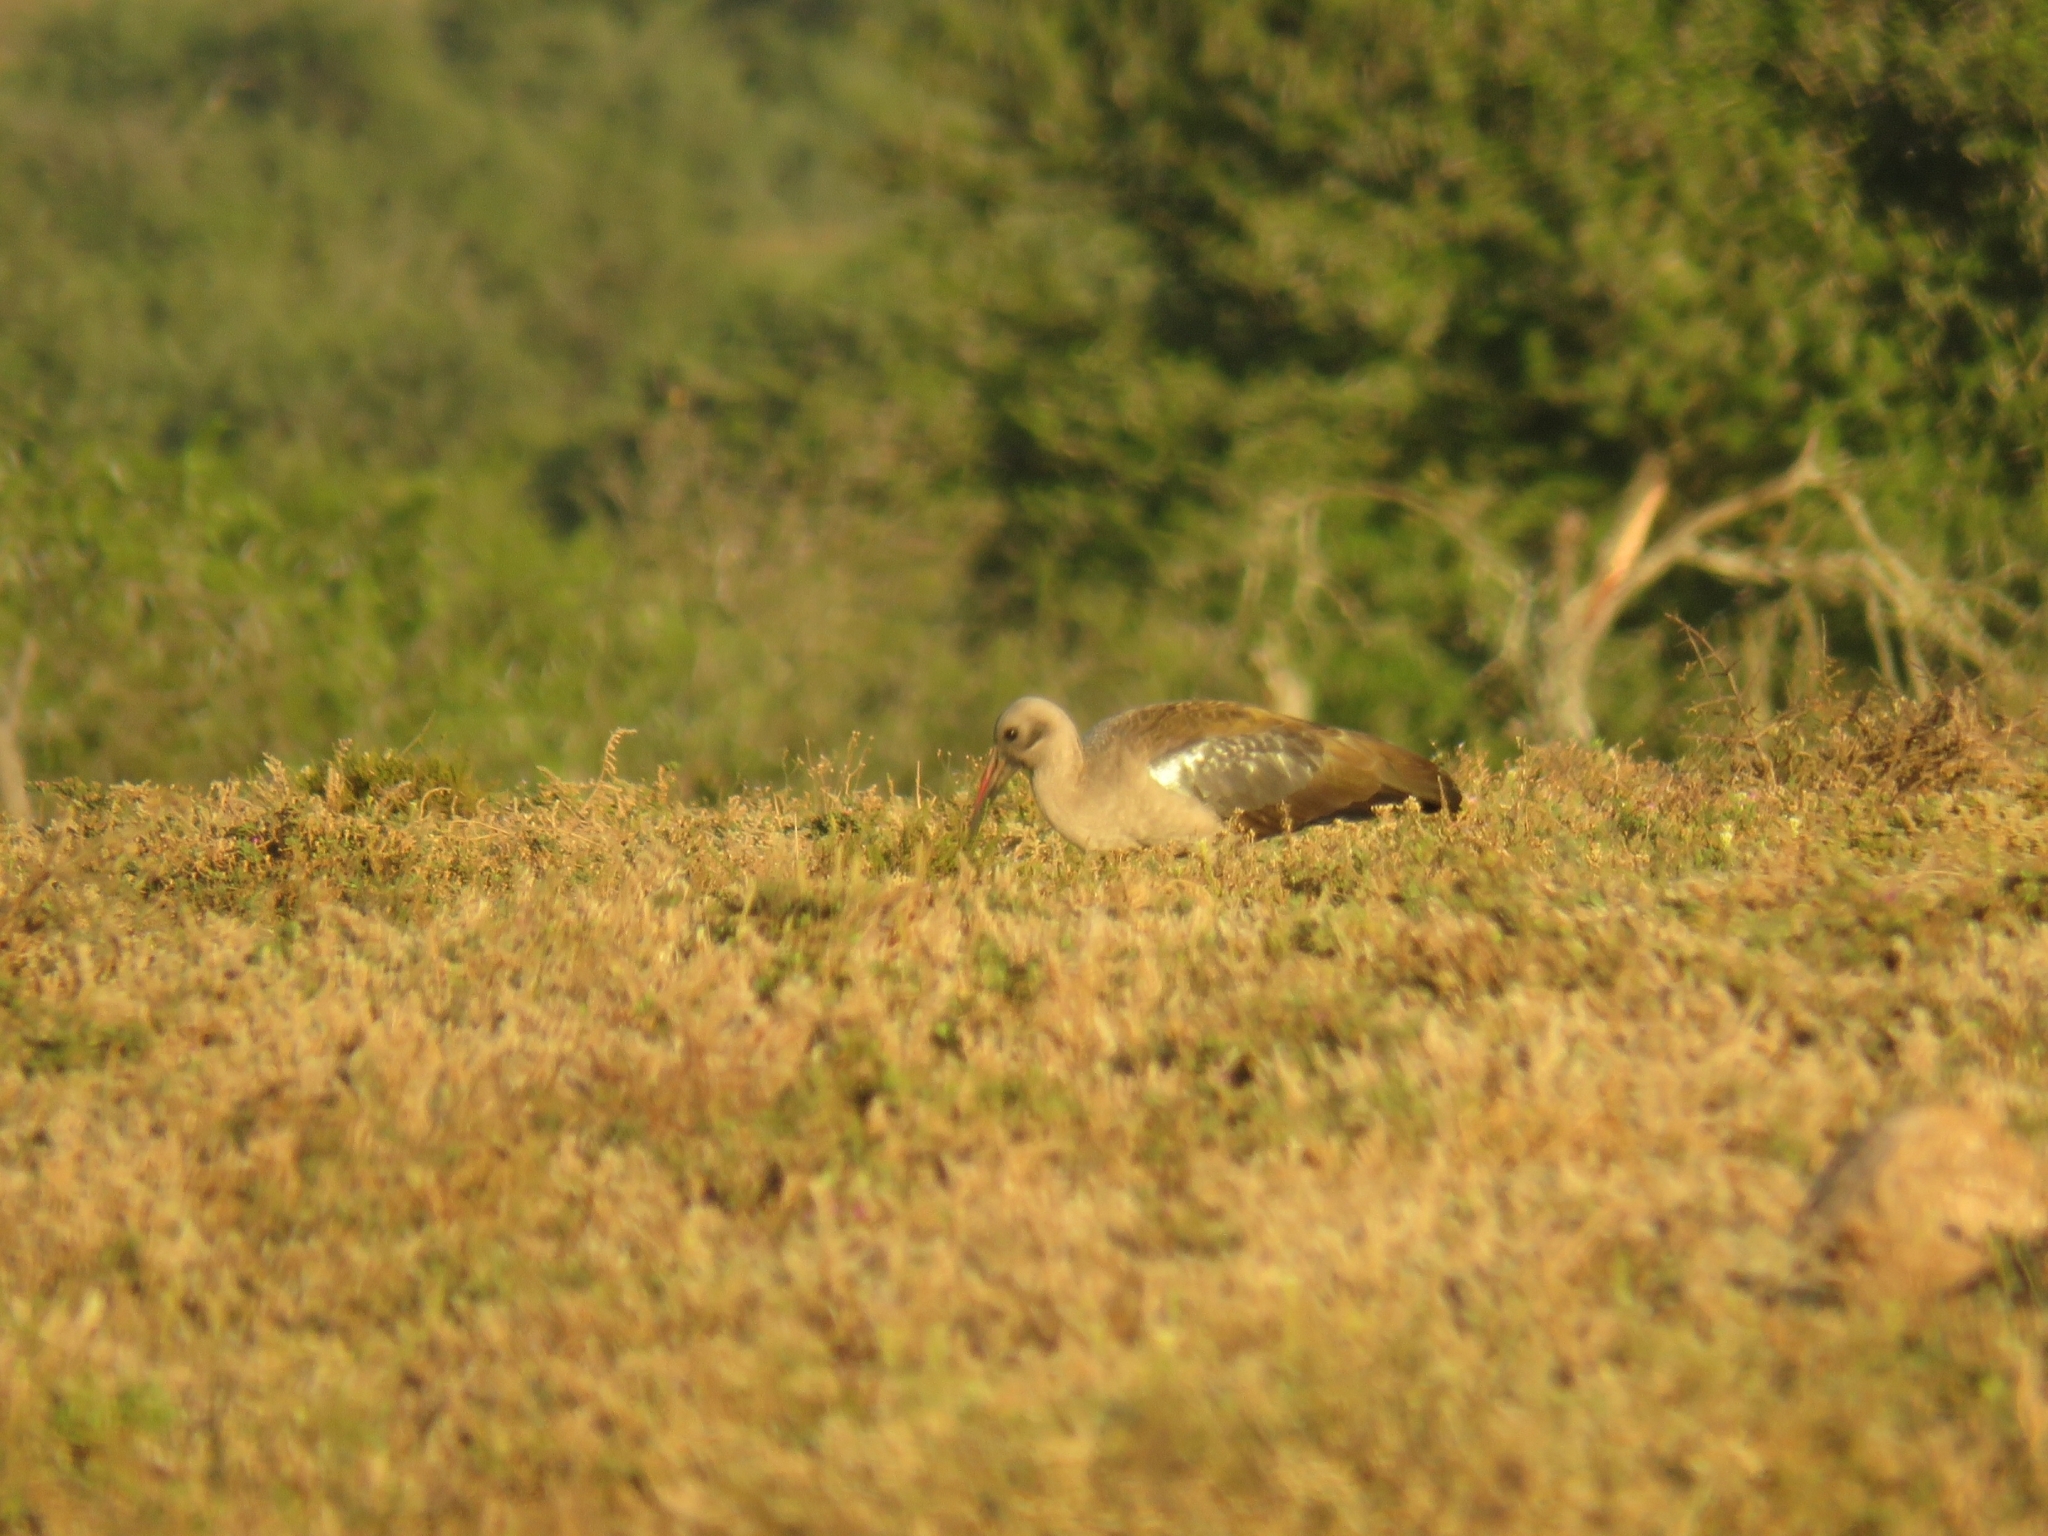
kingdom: Animalia
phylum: Chordata
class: Aves
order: Pelecaniformes
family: Threskiornithidae
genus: Bostrychia
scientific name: Bostrychia hagedash
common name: Hadada ibis
